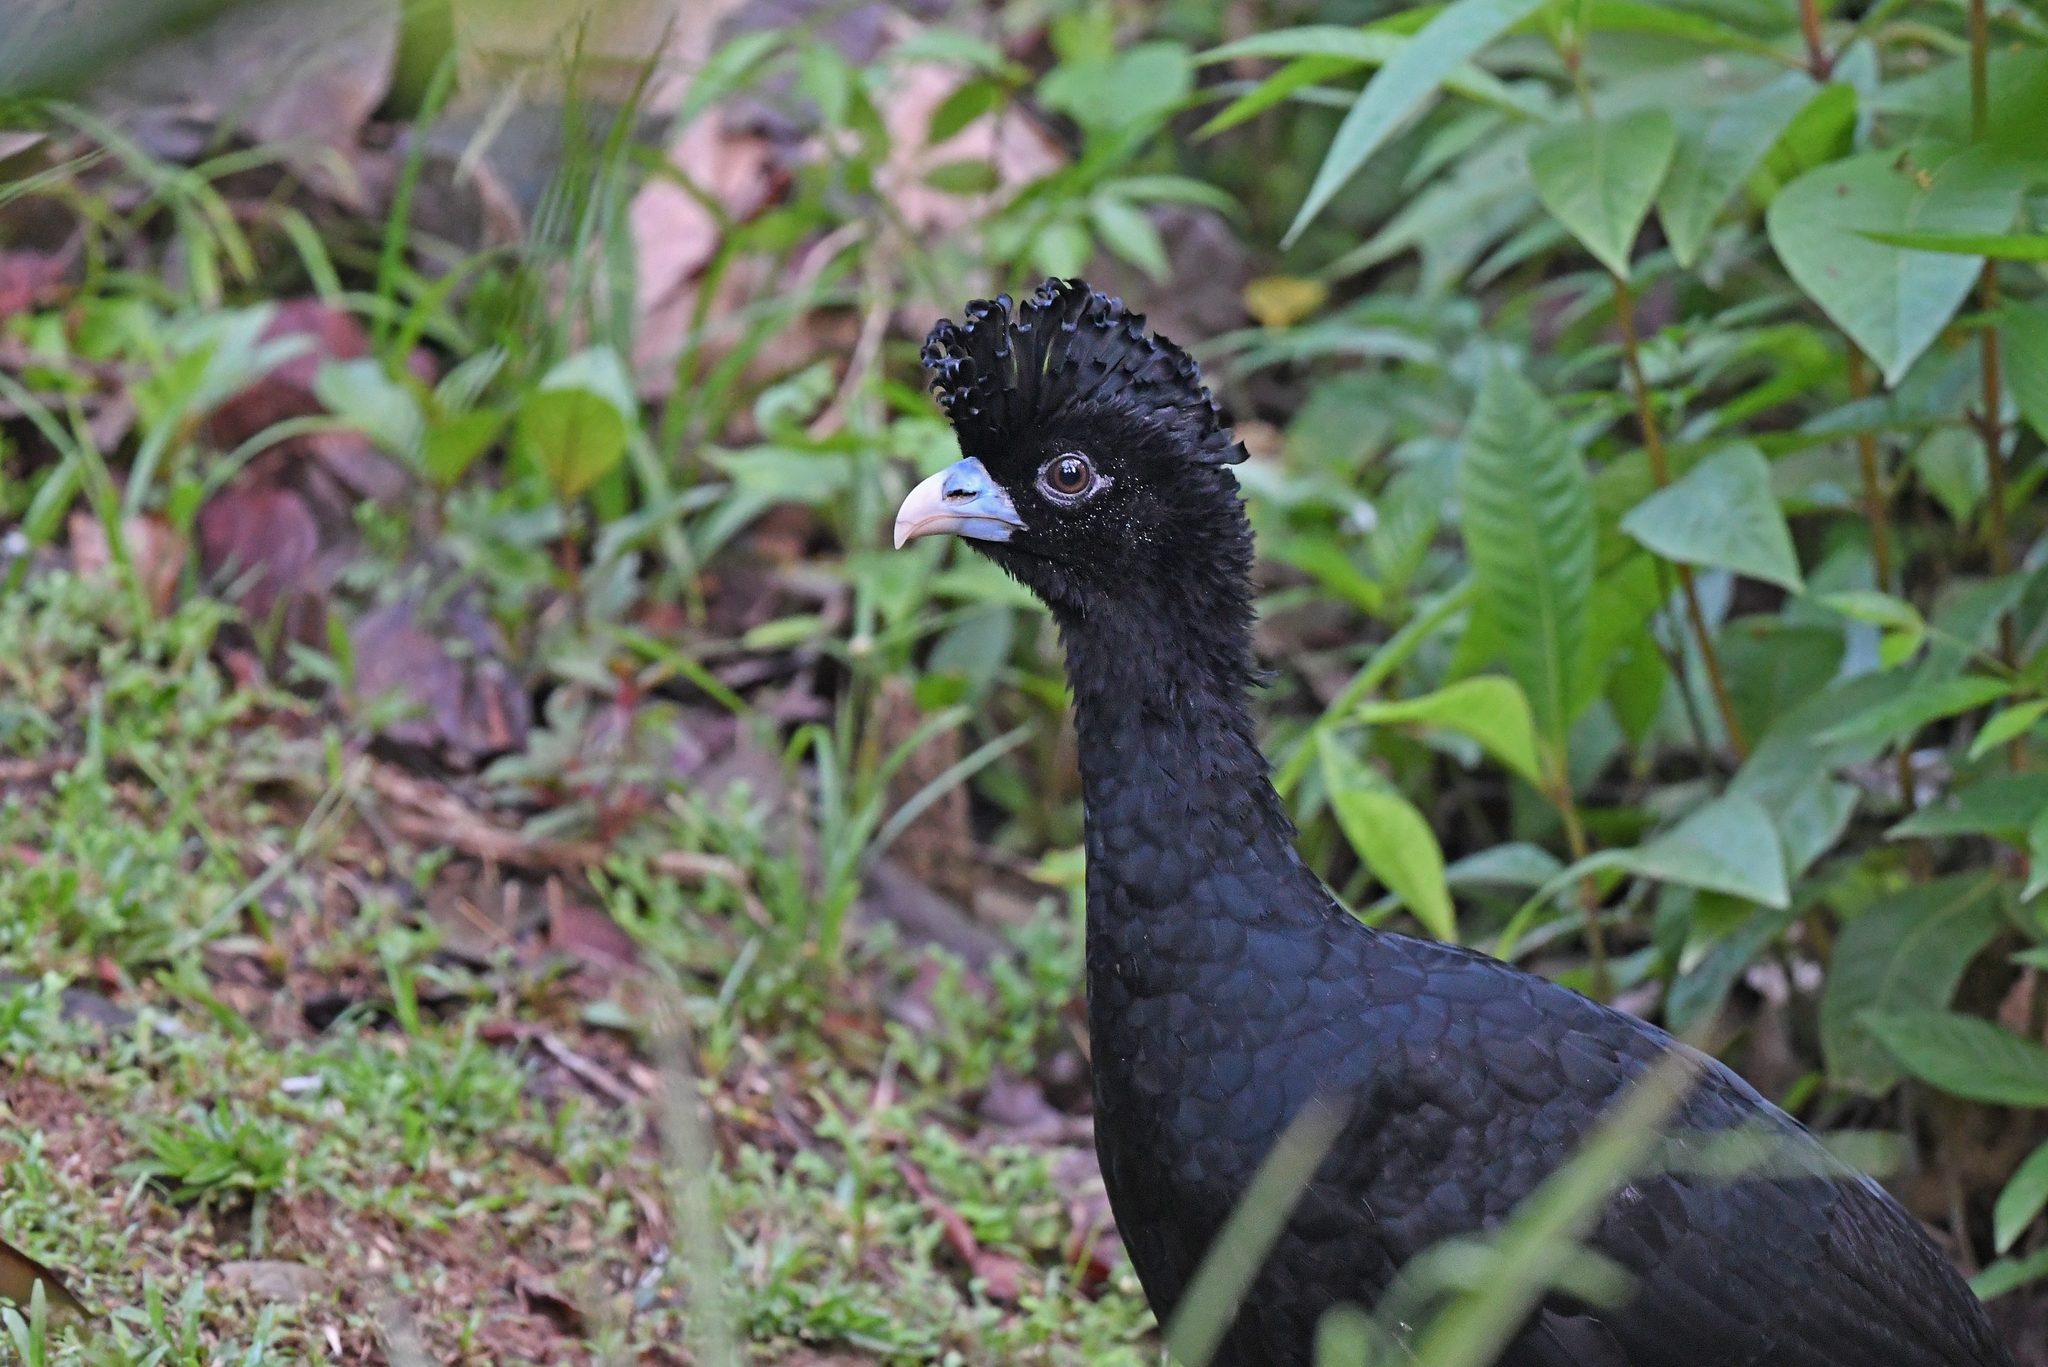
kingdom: Animalia
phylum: Chordata
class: Aves
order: Galliformes
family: Cracidae
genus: Crax
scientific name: Crax alberti
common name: Blue-billed curassow
